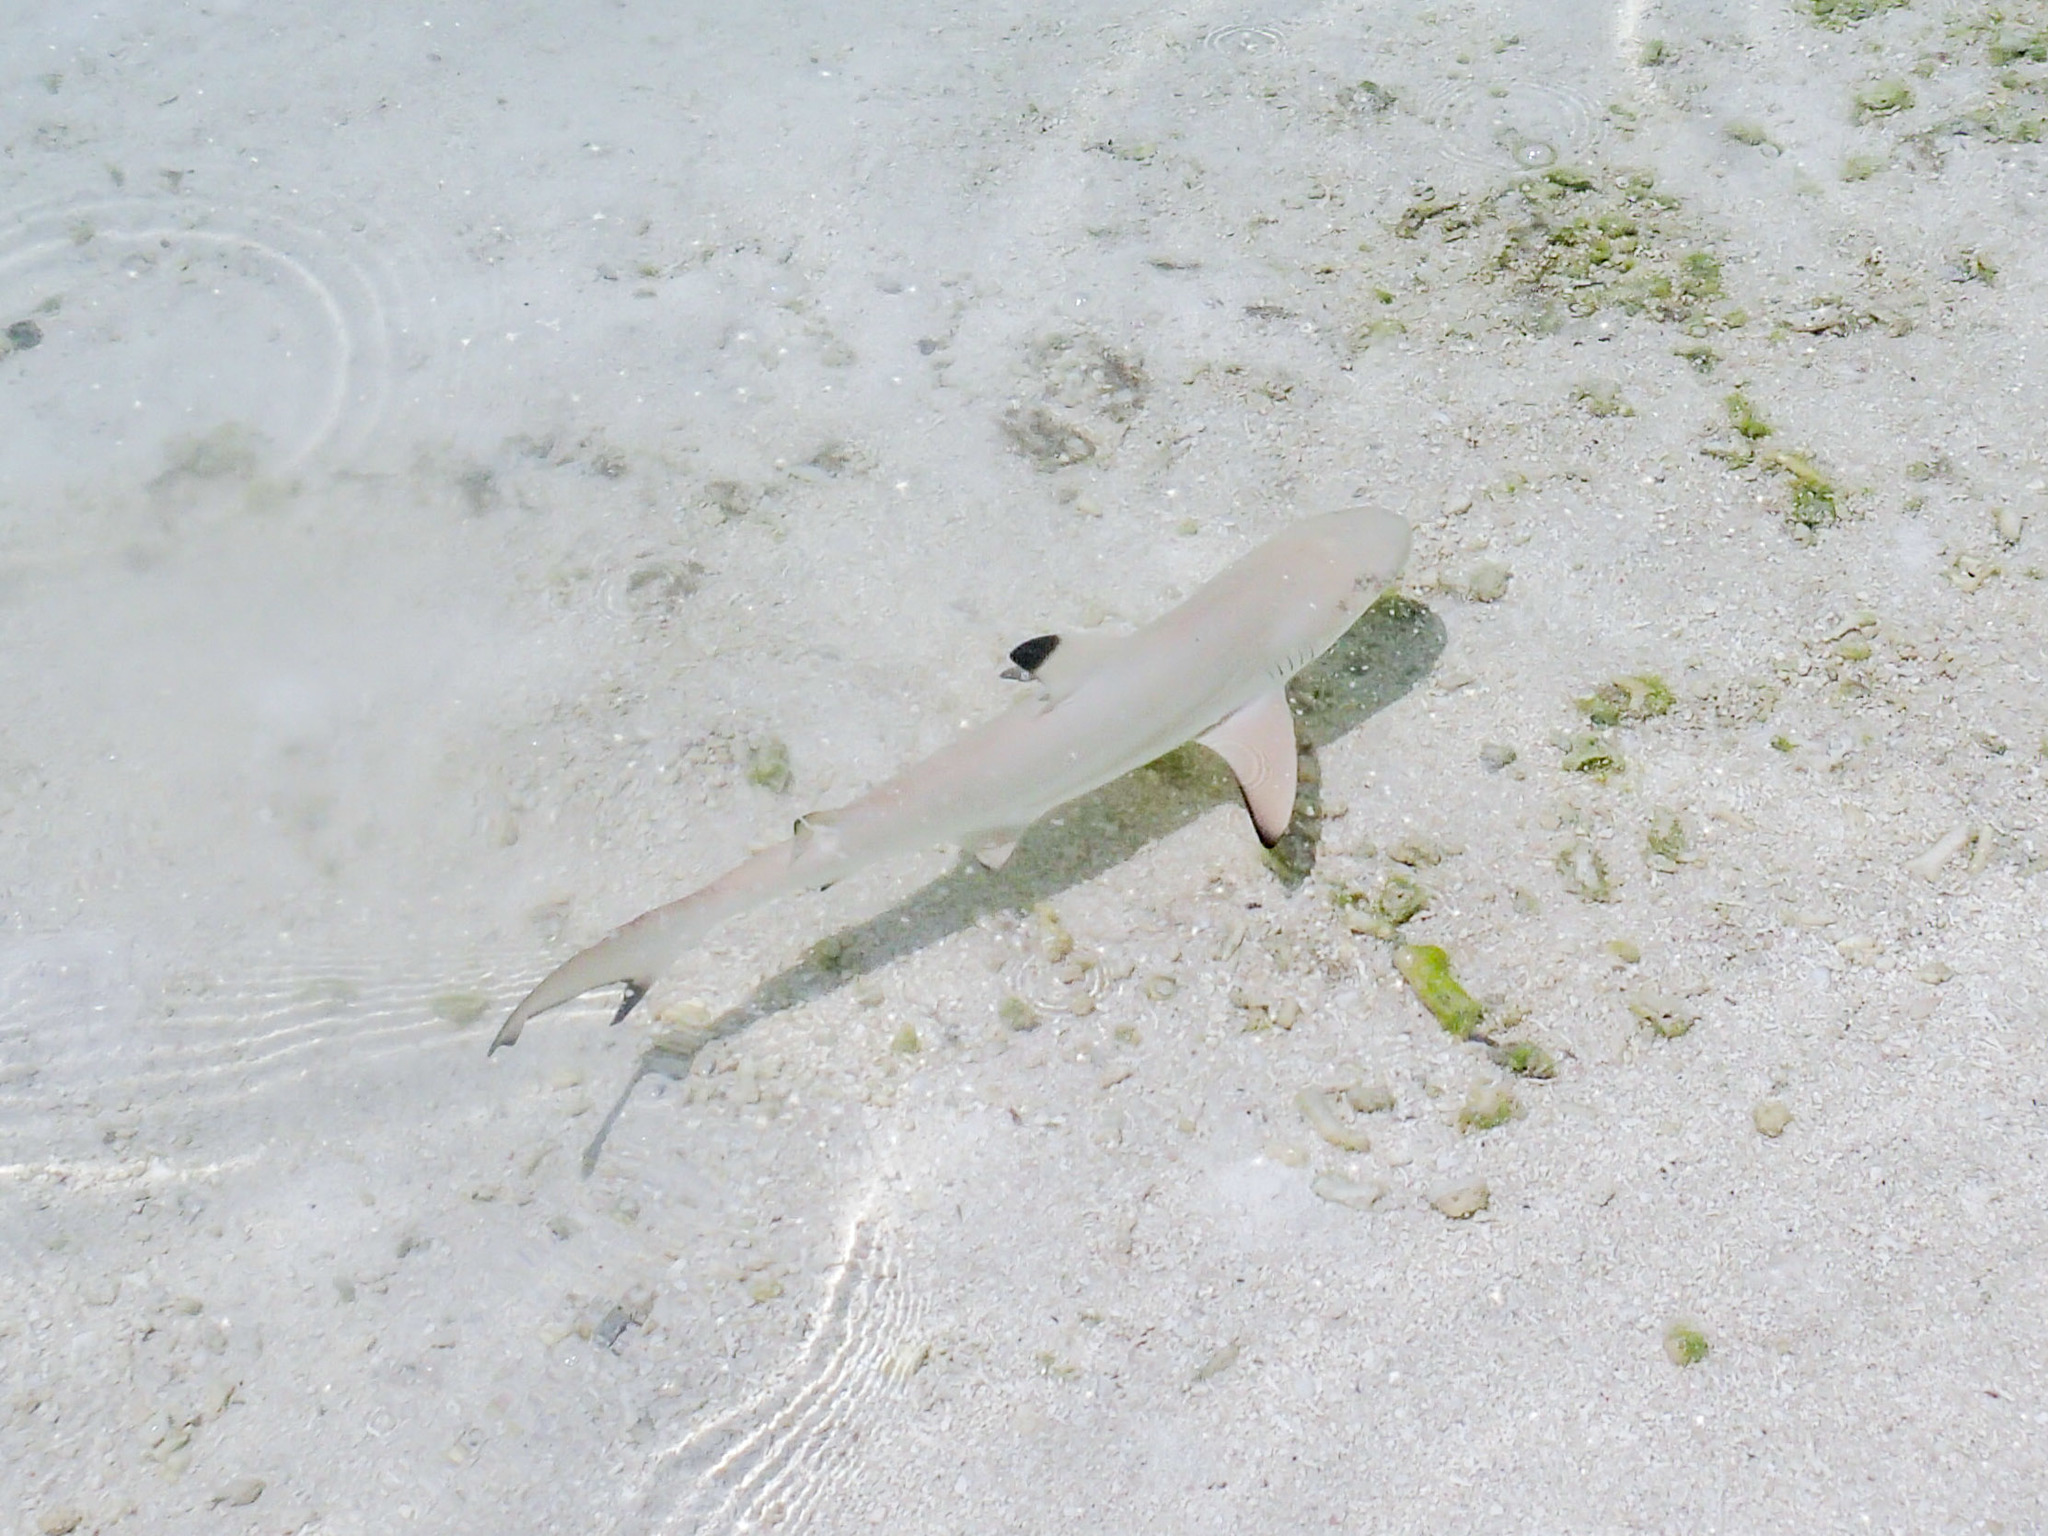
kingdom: Animalia
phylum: Chordata
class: Elasmobranchii
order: Carcharhiniformes
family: Carcharhinidae
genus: Carcharhinus
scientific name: Carcharhinus melanopterus
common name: Blacktip reef shark
